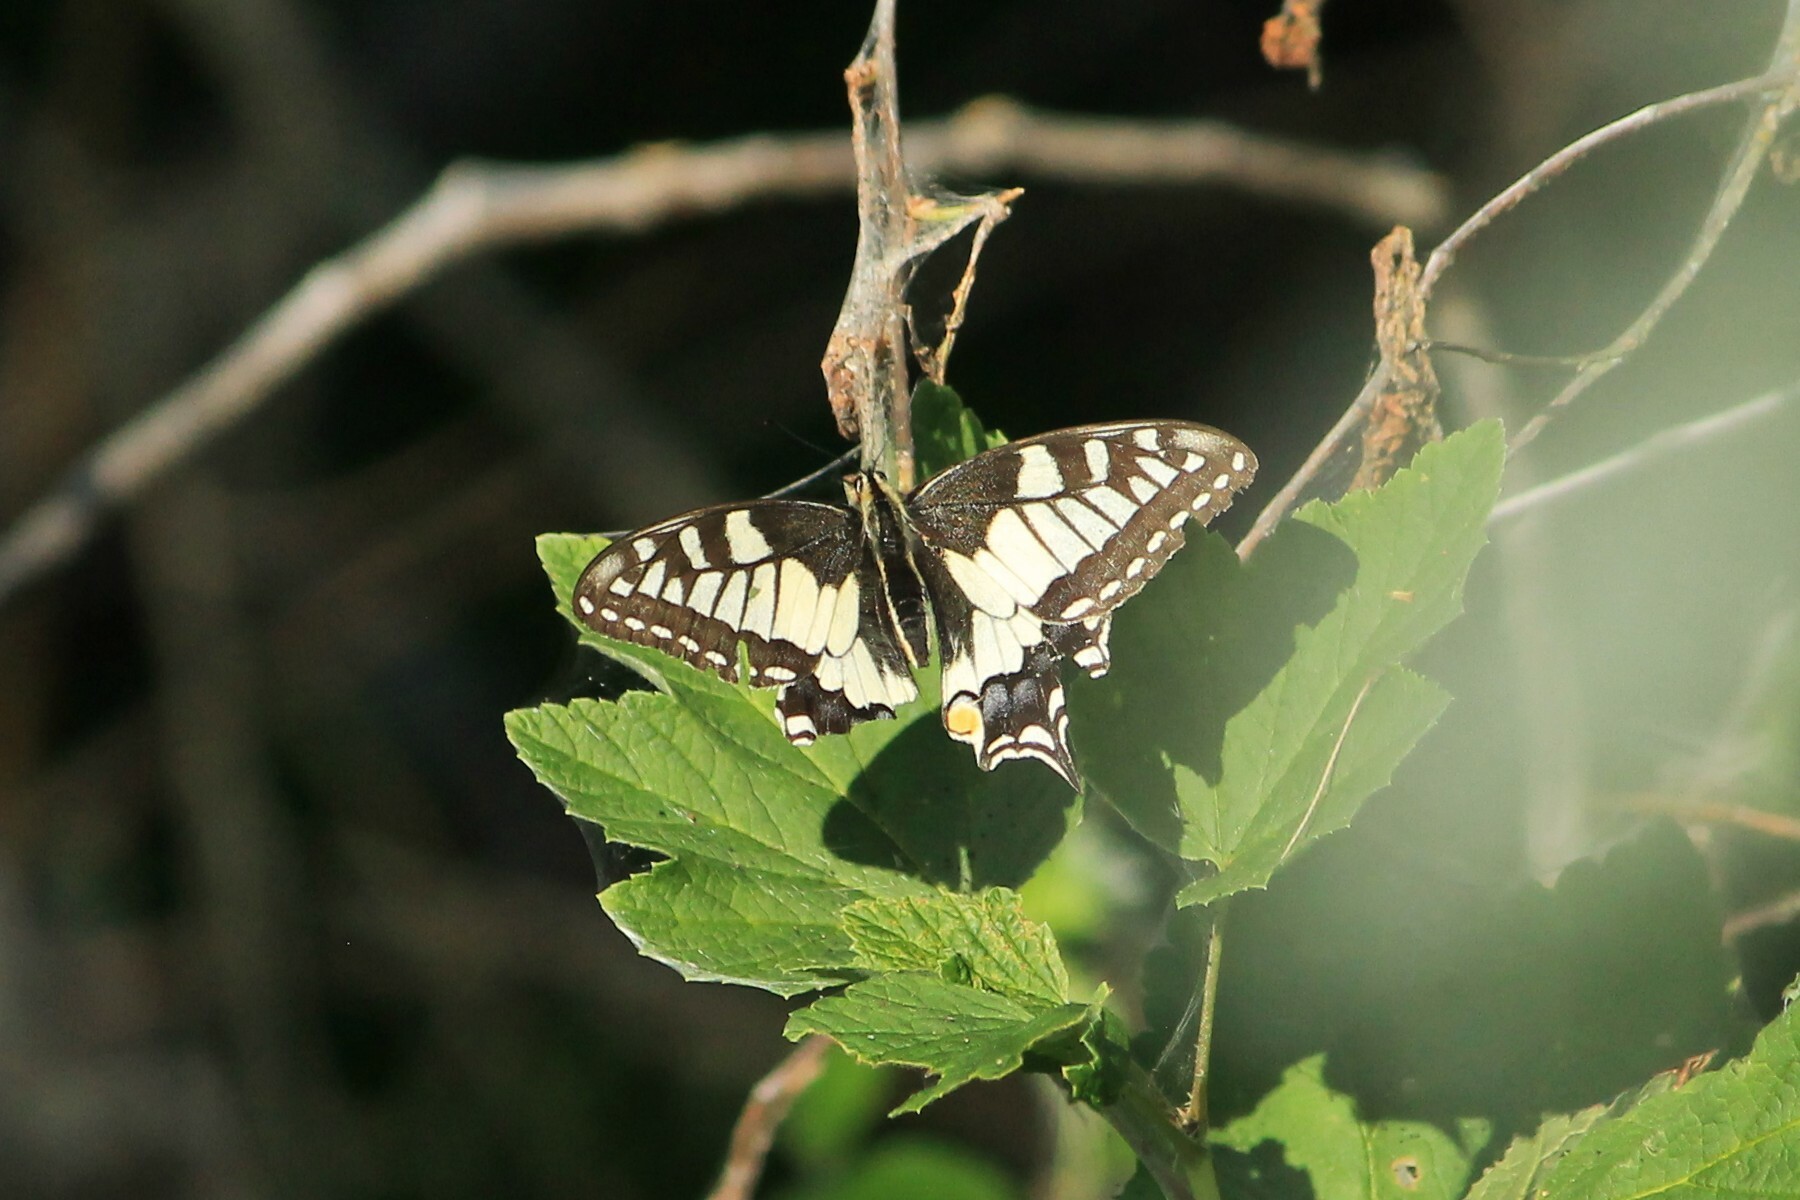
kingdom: Animalia
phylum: Arthropoda
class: Insecta
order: Lepidoptera
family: Papilionidae
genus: Papilio
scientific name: Papilio machaon
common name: Swallowtail
